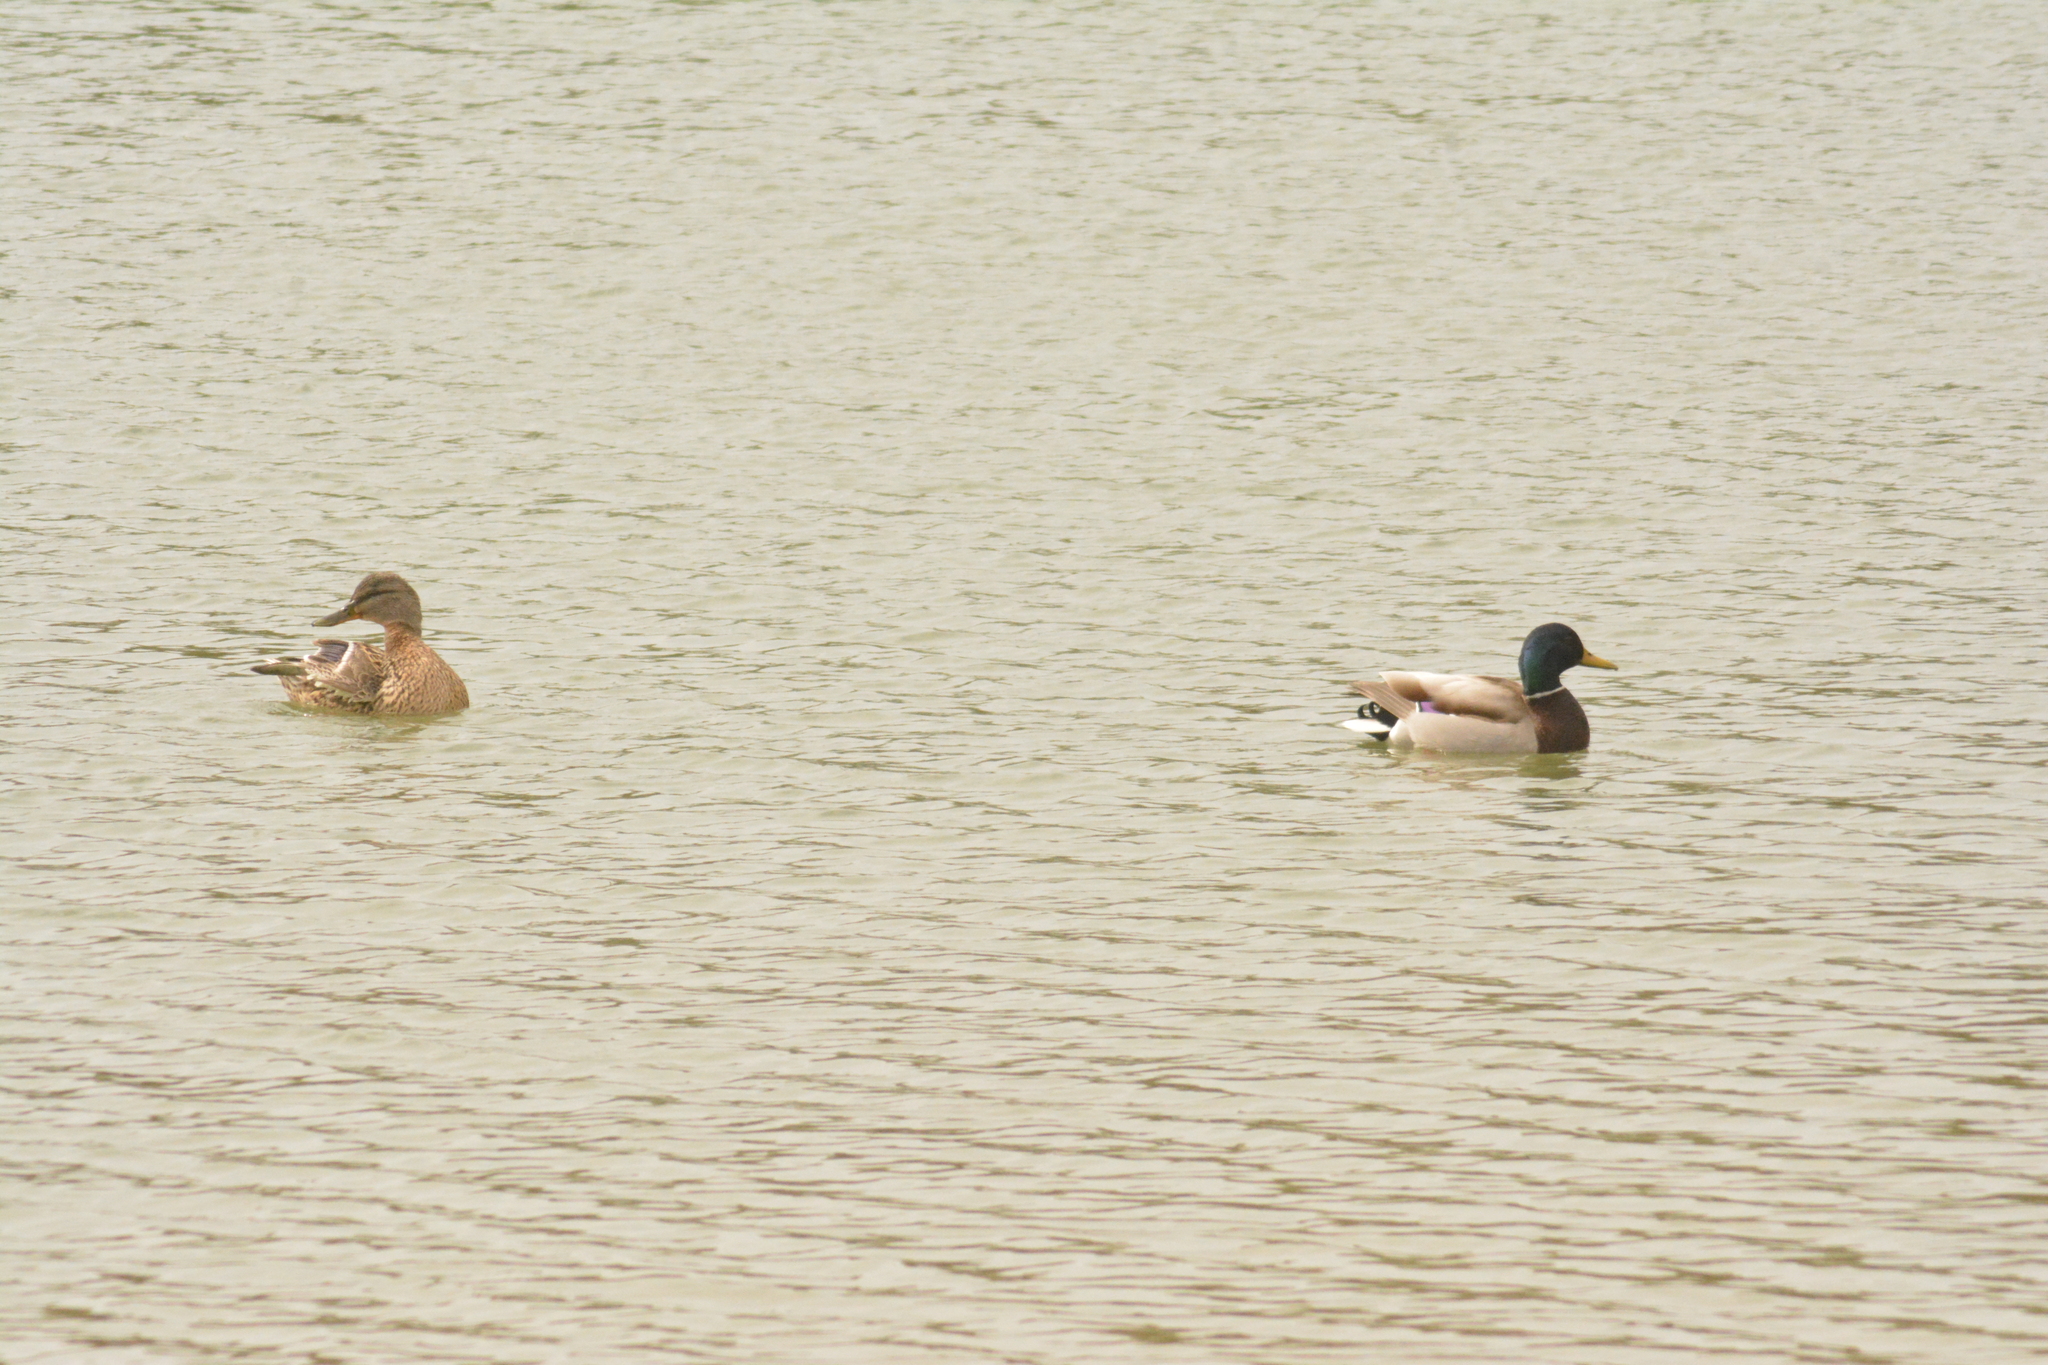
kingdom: Animalia
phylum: Chordata
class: Aves
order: Anseriformes
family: Anatidae
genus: Anas
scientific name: Anas platyrhynchos
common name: Mallard
